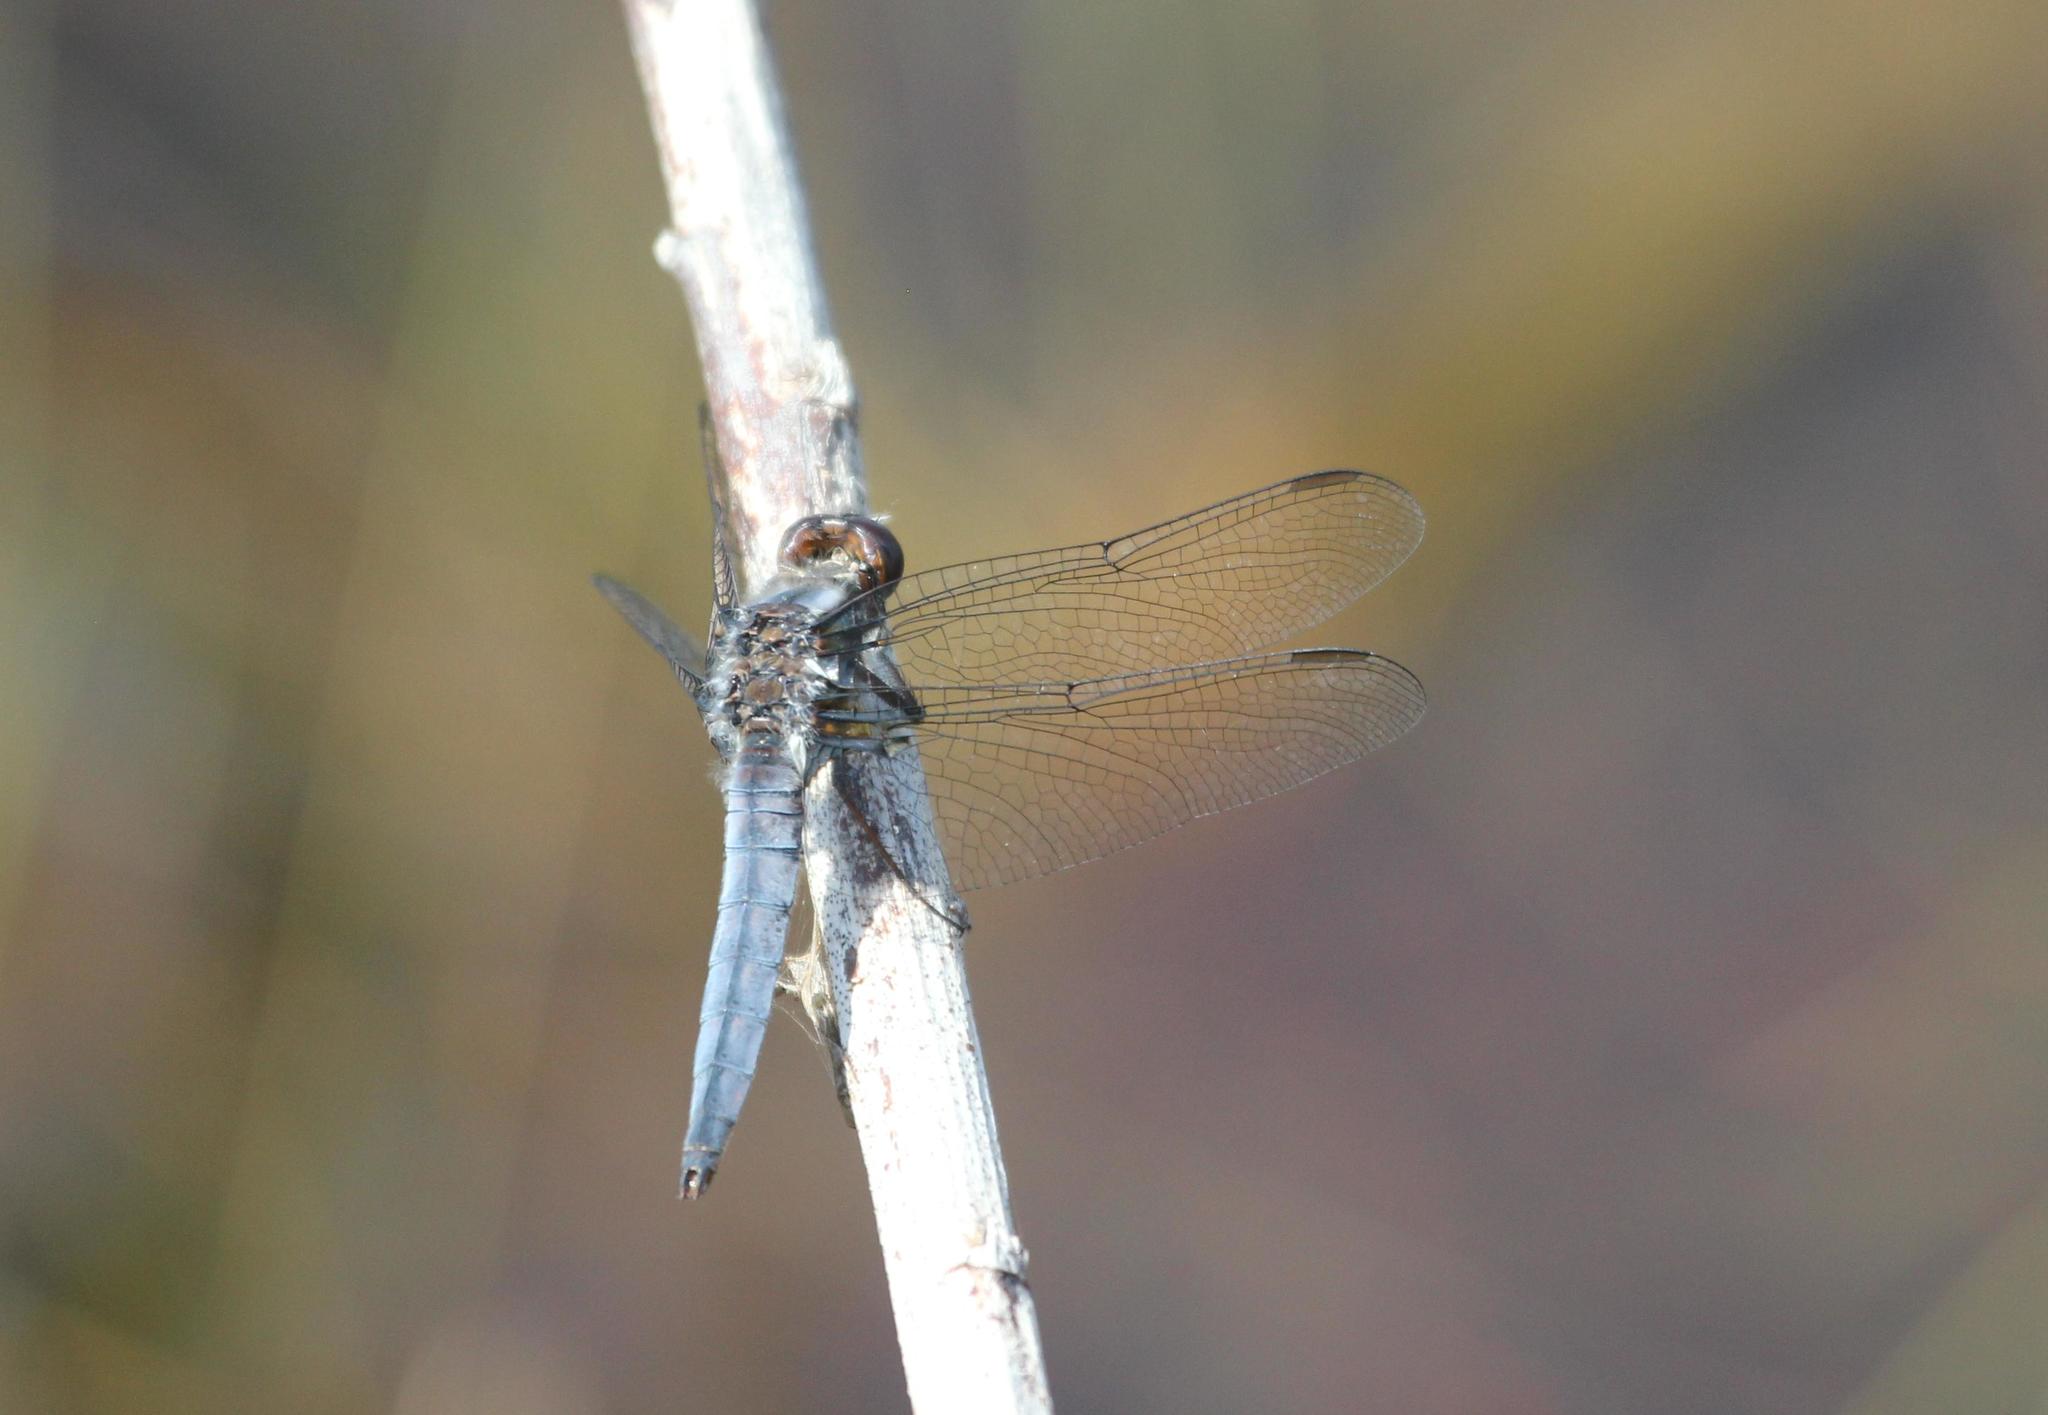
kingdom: Animalia
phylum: Arthropoda
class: Insecta
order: Odonata
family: Libellulidae
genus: Ladona
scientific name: Ladona deplanata
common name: Blue corporal
